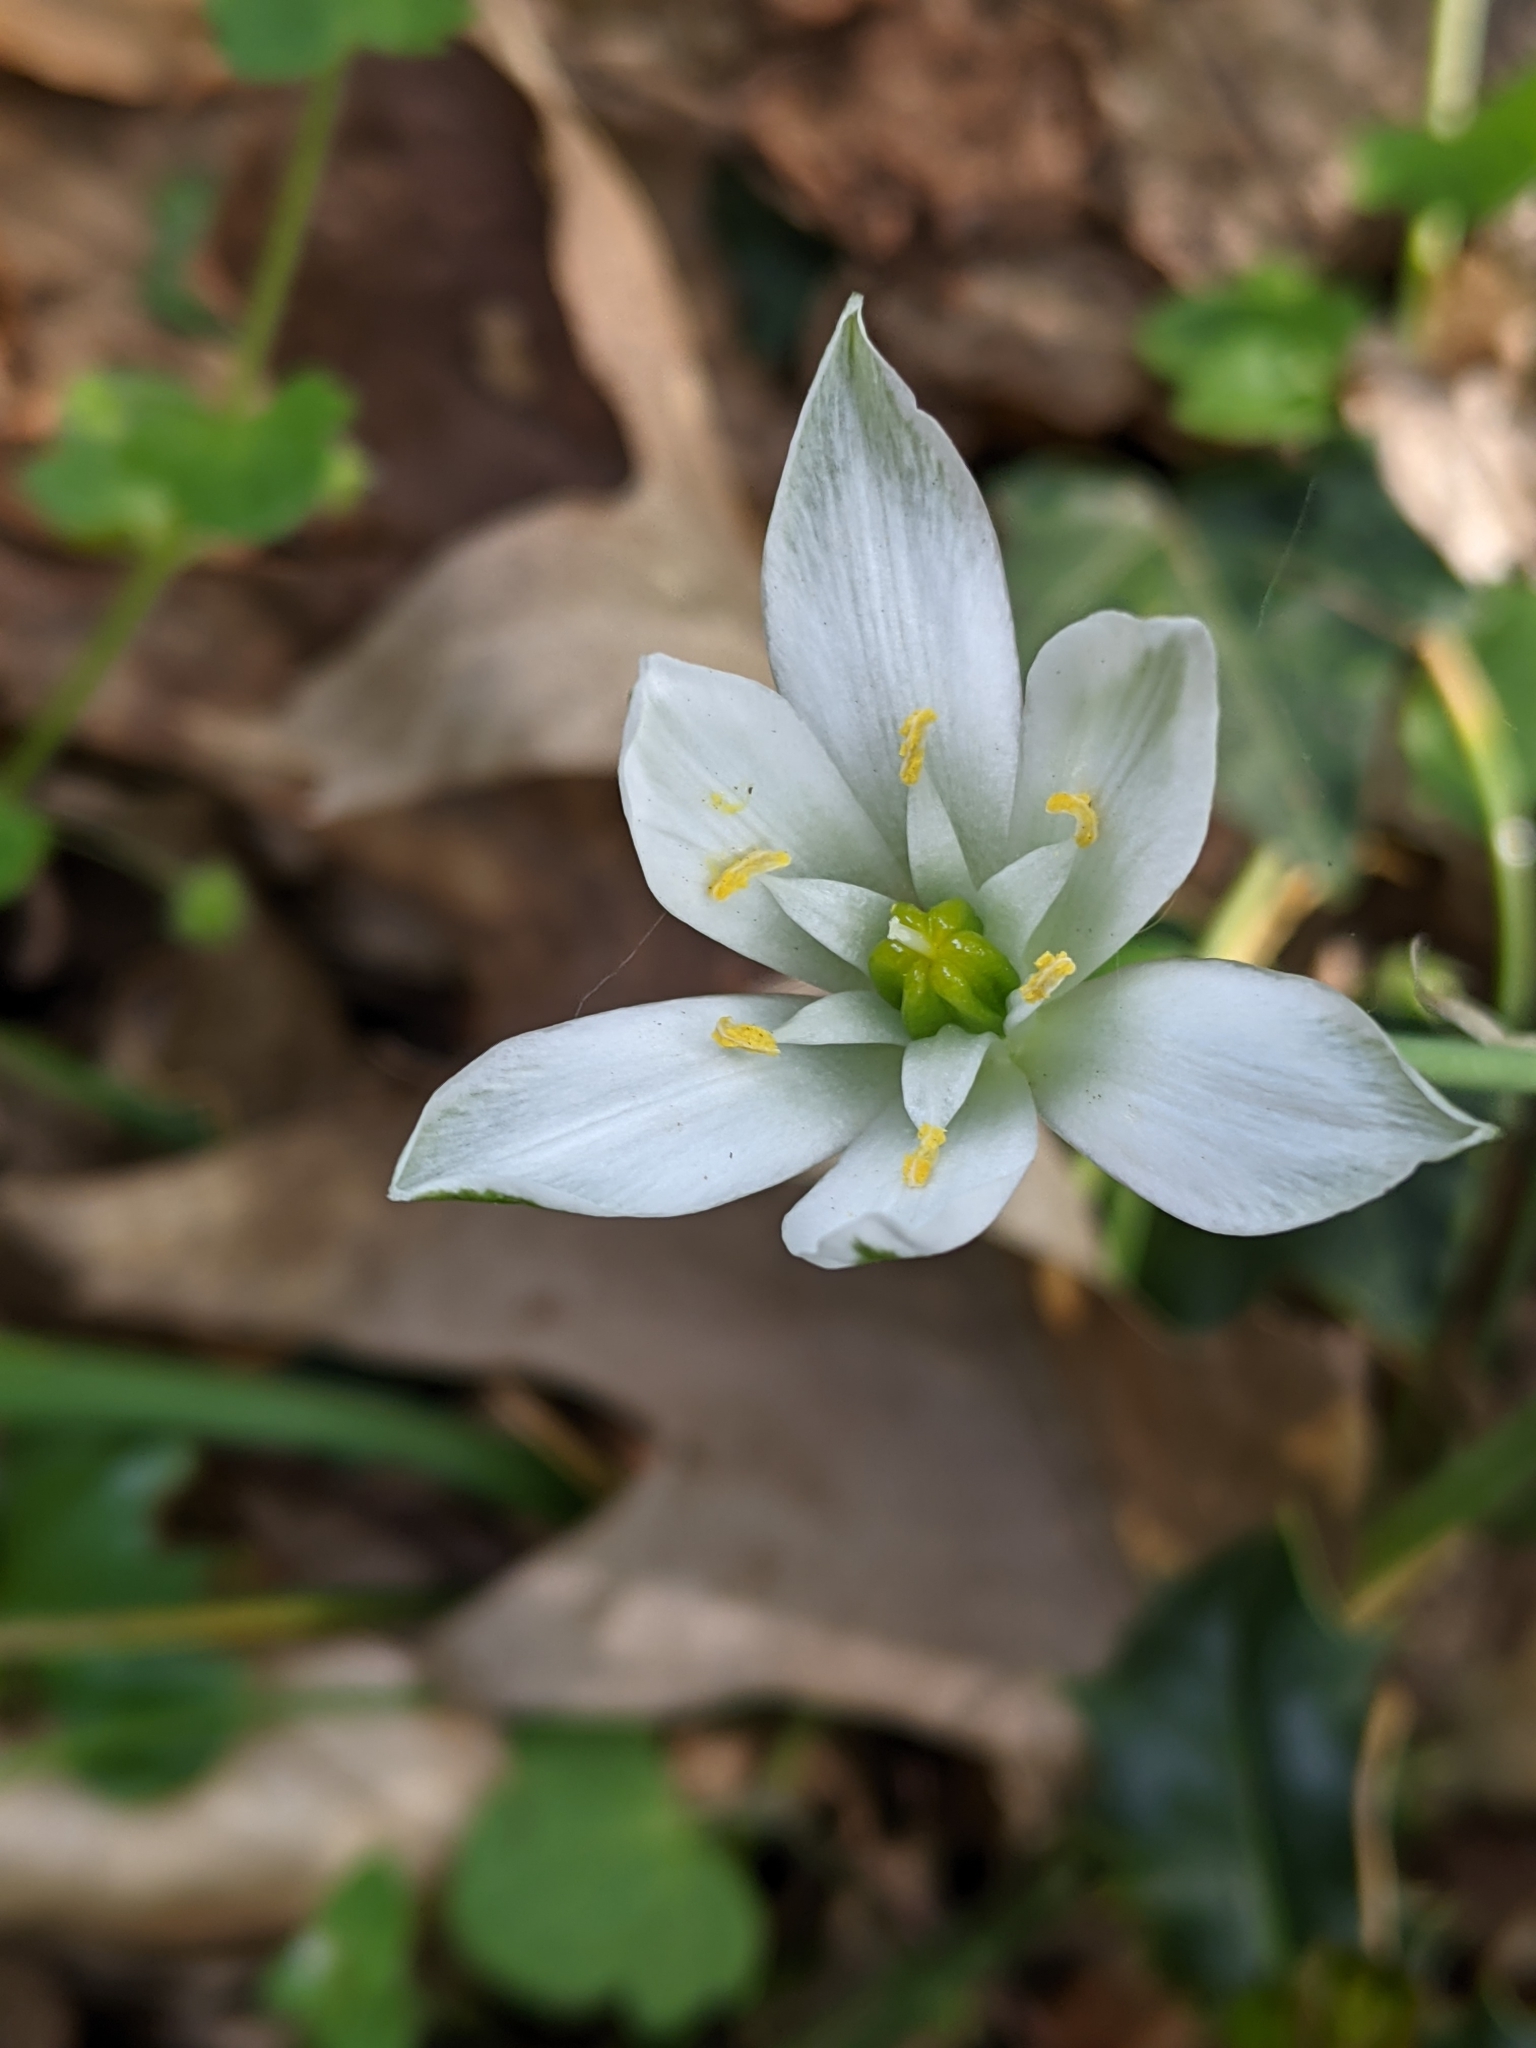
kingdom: Plantae
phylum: Tracheophyta
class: Liliopsida
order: Asparagales
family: Asparagaceae
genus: Ornithogalum
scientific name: Ornithogalum umbellatum
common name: Garden star-of-bethlehem
